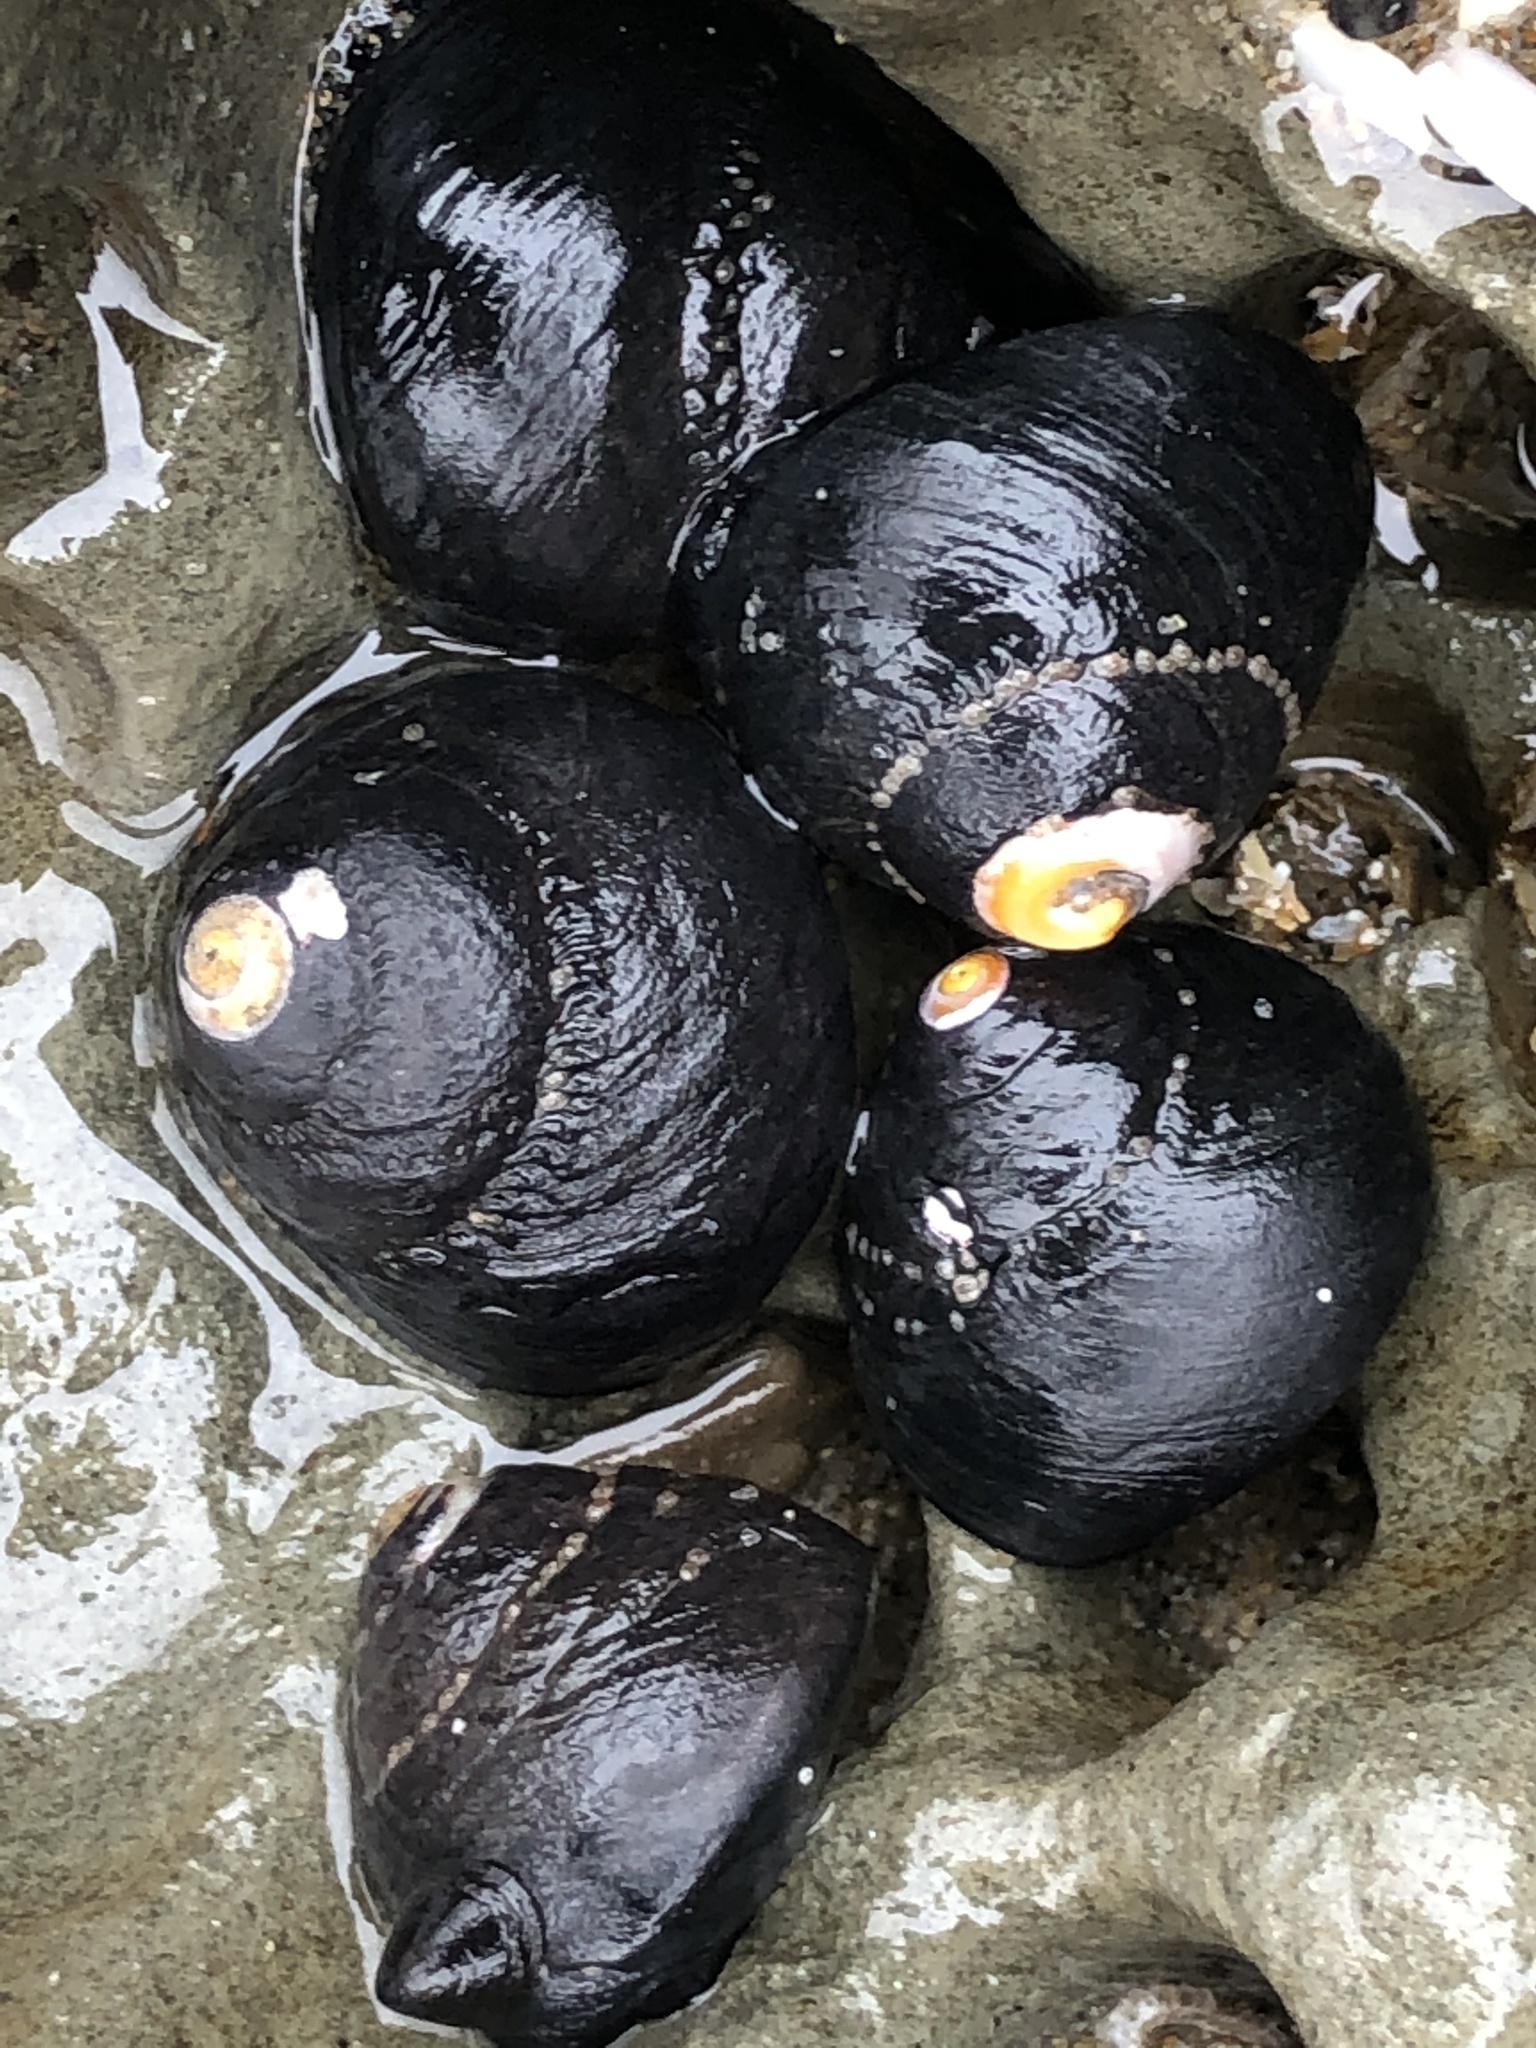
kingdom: Animalia
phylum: Mollusca
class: Gastropoda
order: Trochida
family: Tegulidae
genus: Tegula
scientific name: Tegula funebralis
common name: Black tegula
